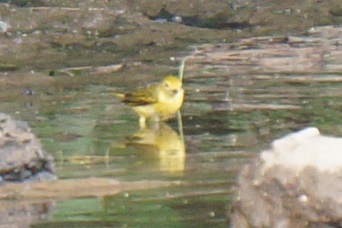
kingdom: Animalia
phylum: Chordata
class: Aves
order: Passeriformes
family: Parulidae
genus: Setophaga
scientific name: Setophaga petechia
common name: Yellow warbler
